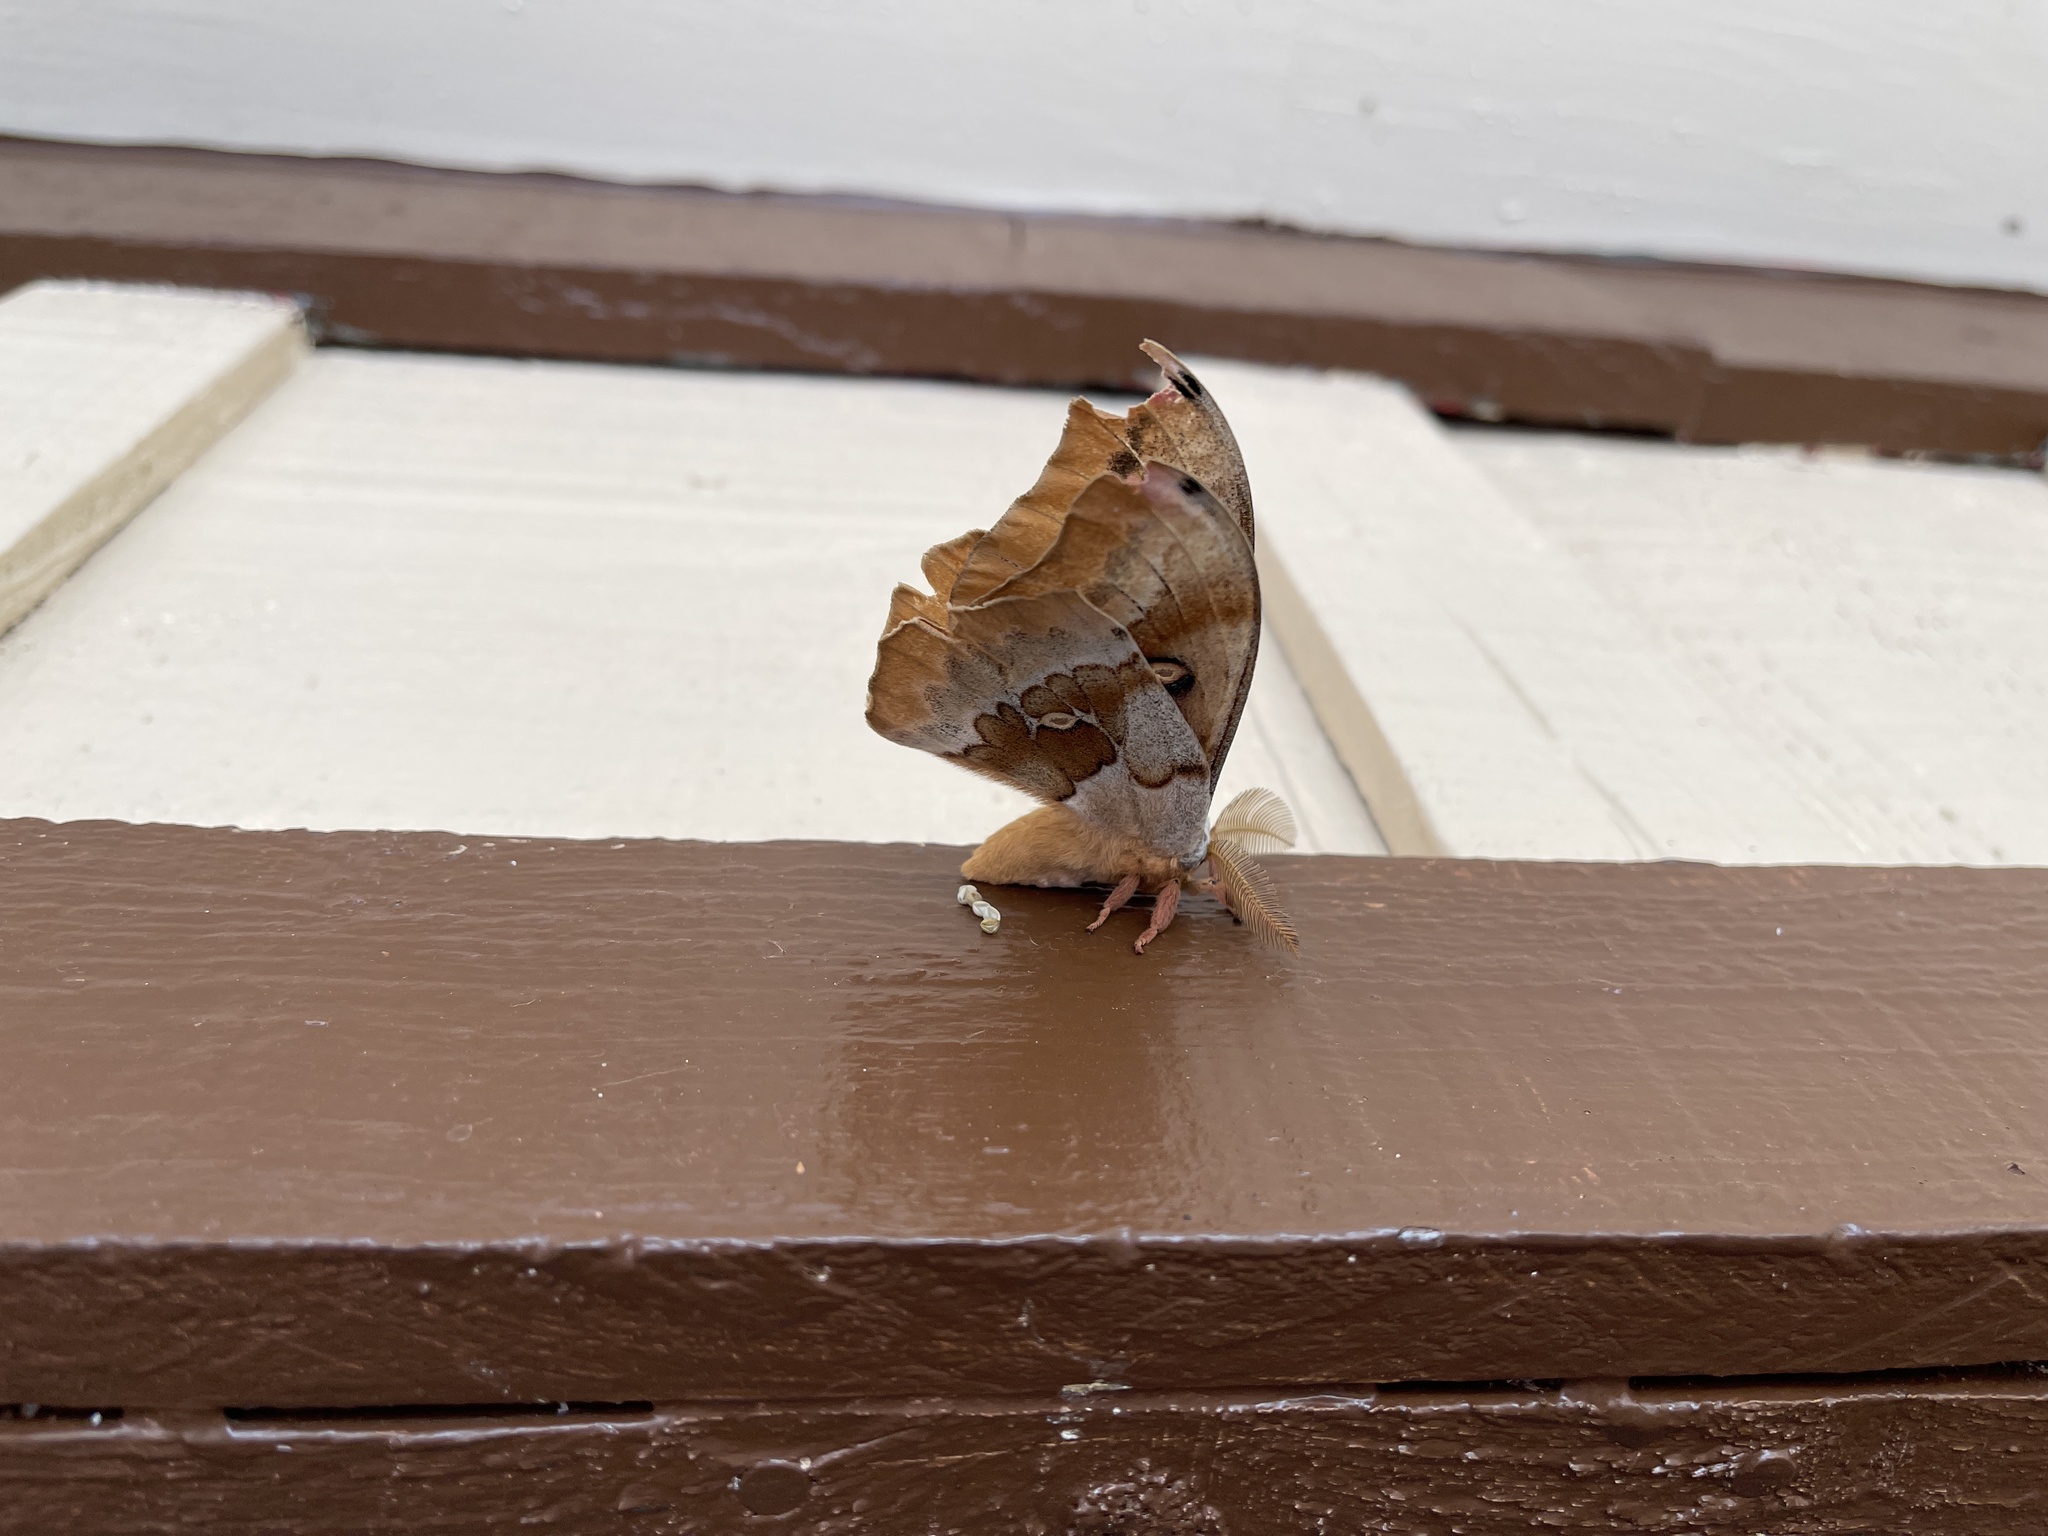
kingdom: Animalia
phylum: Arthropoda
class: Insecta
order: Lepidoptera
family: Saturniidae
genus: Antheraea
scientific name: Antheraea oculea
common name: Arizona polyphemus moth
